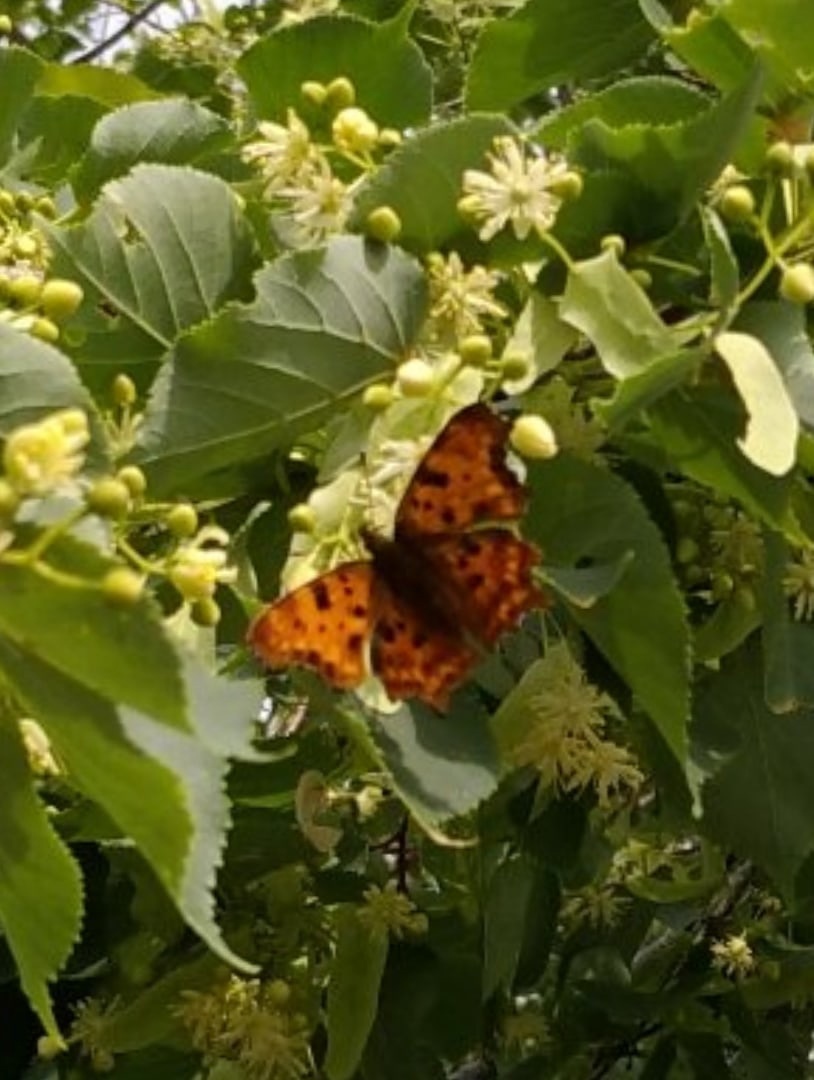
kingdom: Animalia
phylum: Arthropoda
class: Insecta
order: Lepidoptera
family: Nymphalidae
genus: Polygonia
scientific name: Polygonia c-album
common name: Comma
